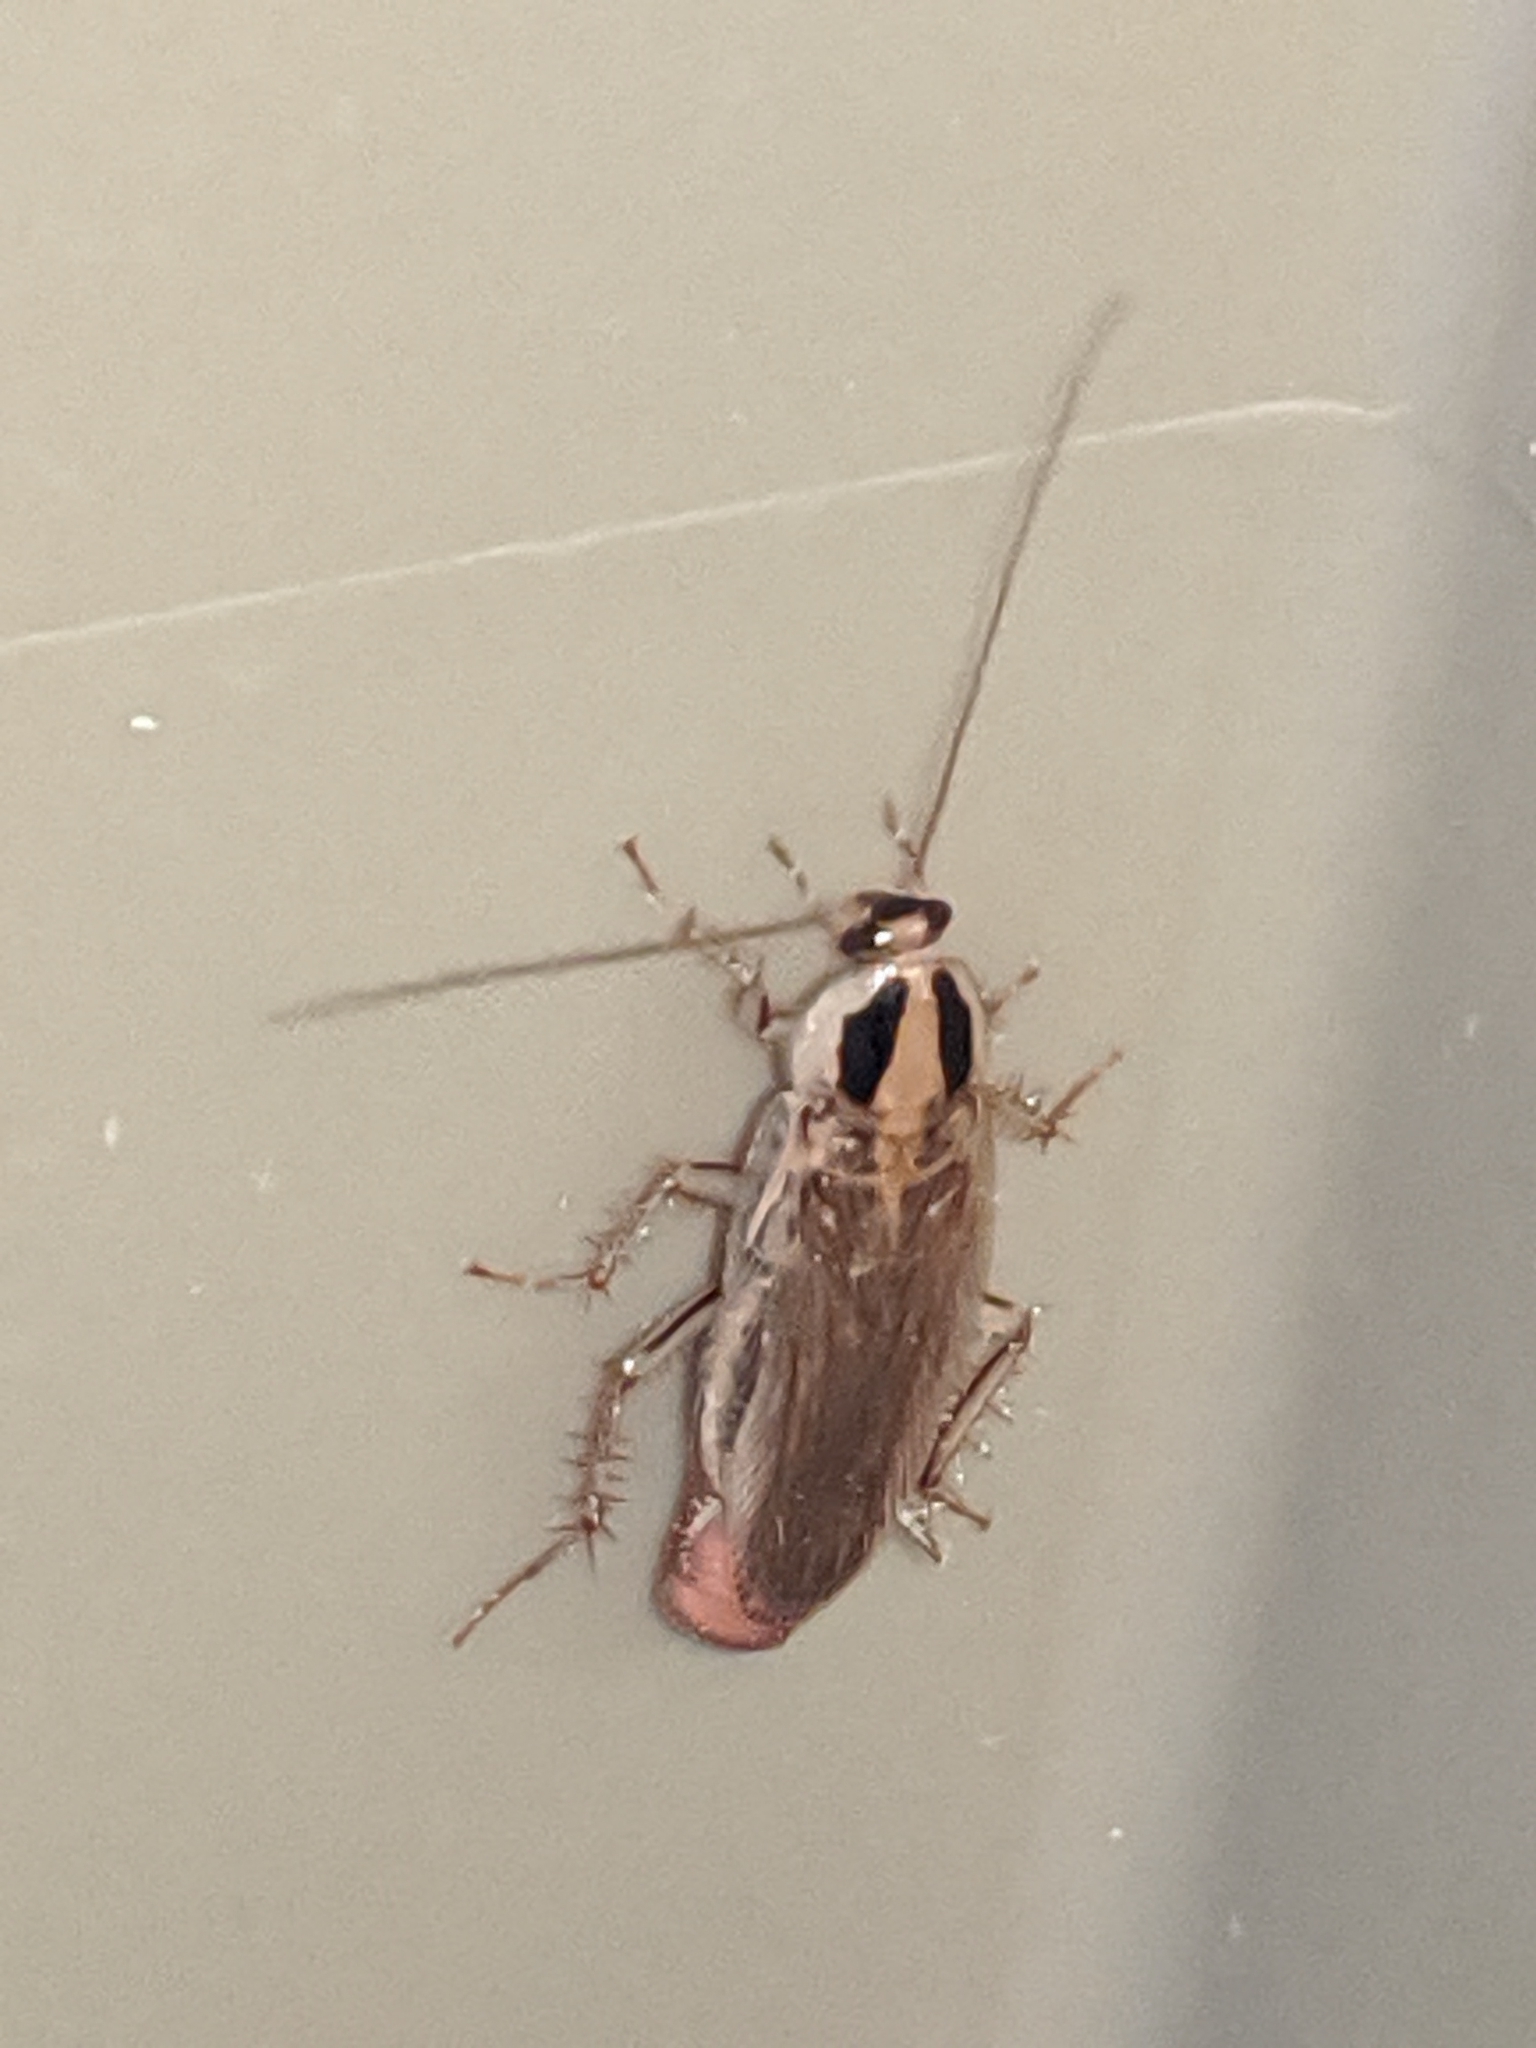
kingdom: Animalia
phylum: Arthropoda
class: Insecta
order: Blattodea
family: Ectobiidae
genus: Blattella
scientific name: Blattella vaga
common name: Field cockroach
